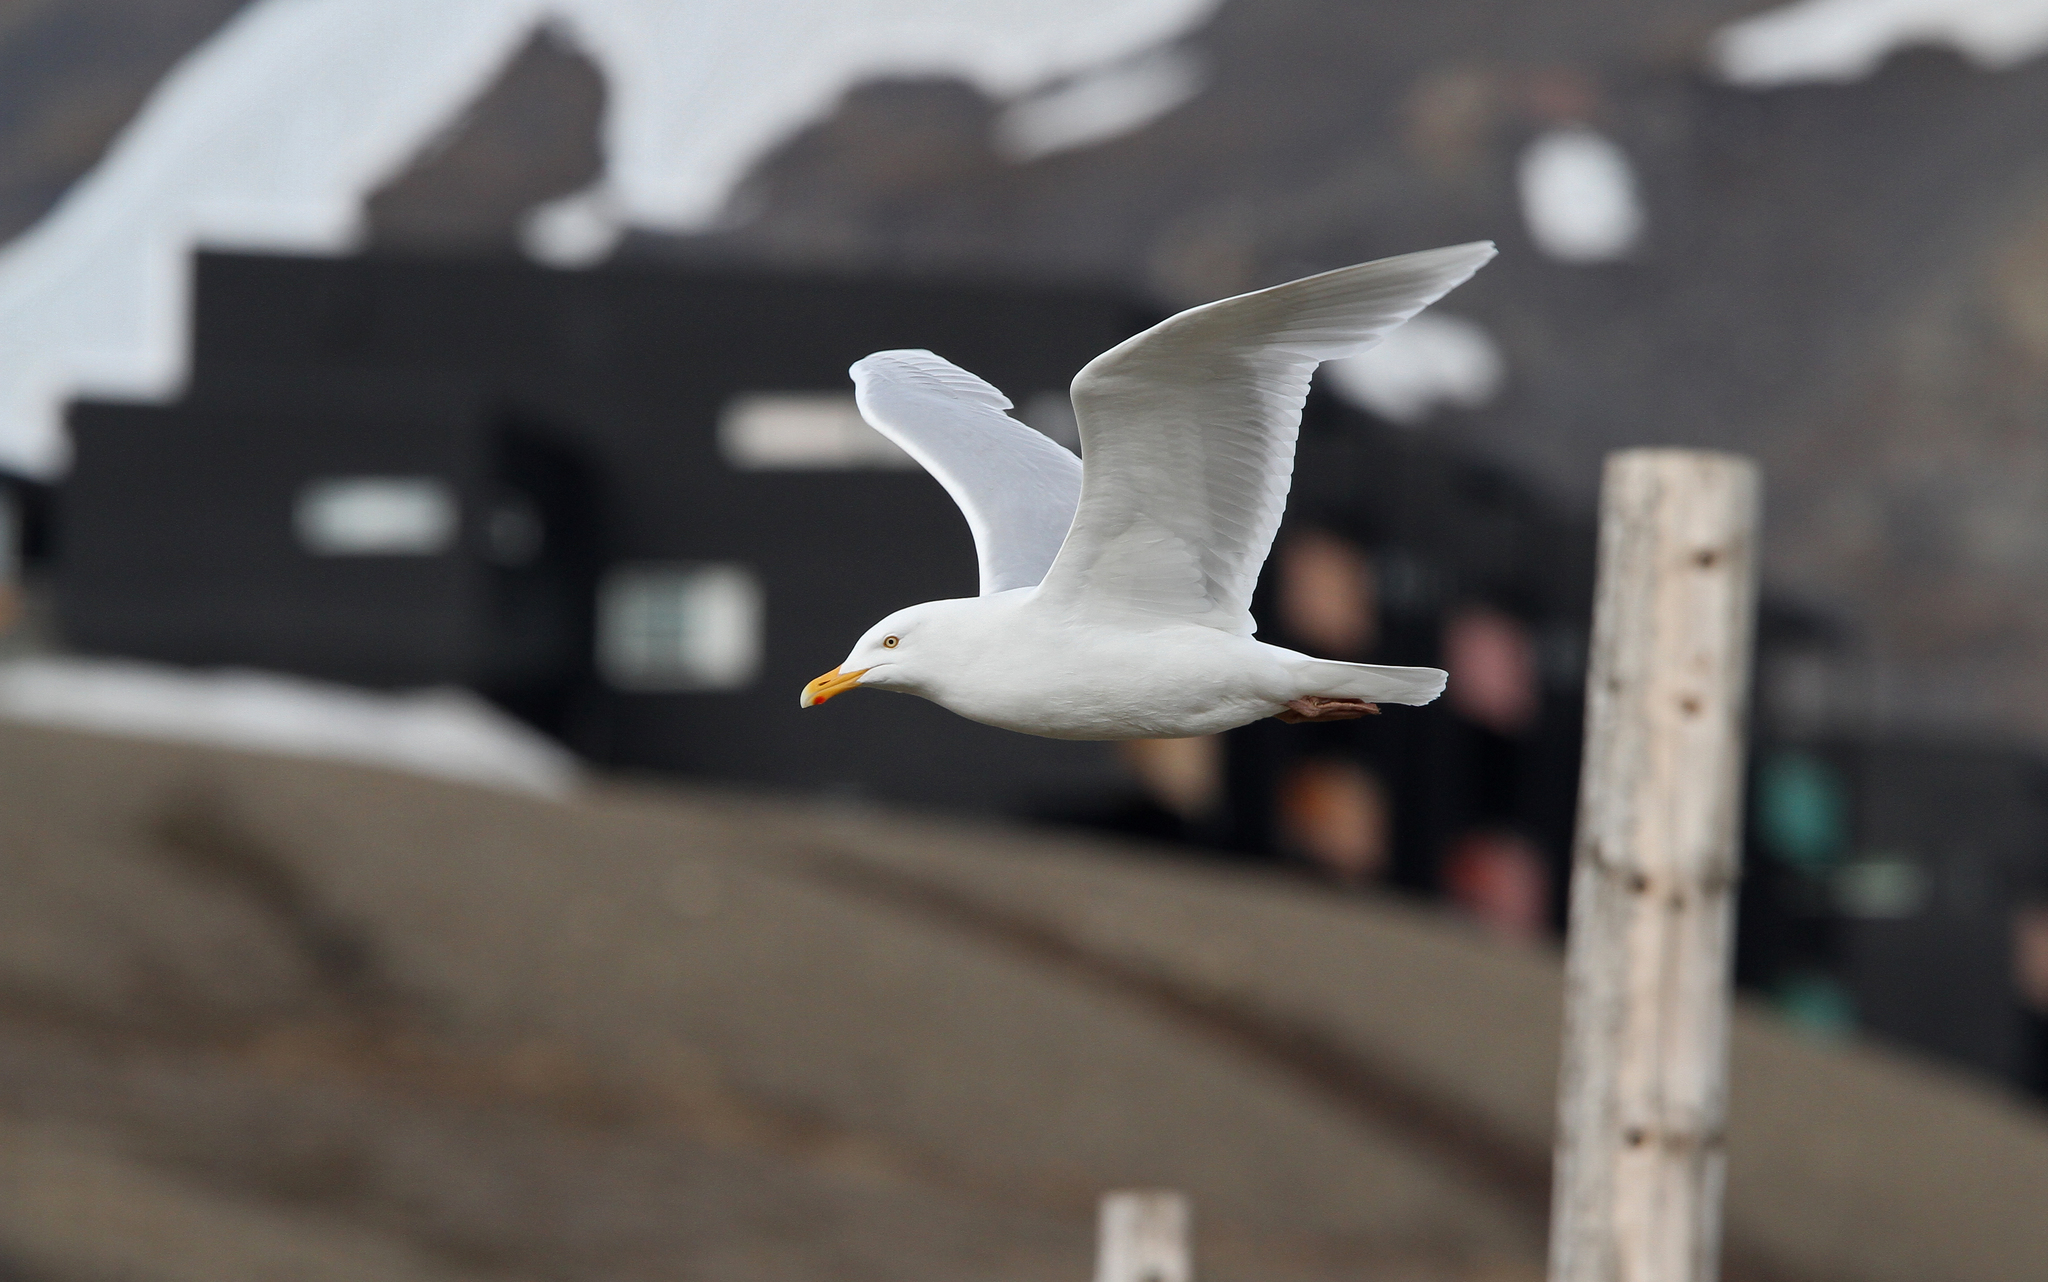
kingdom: Animalia
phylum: Chordata
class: Aves
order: Charadriiformes
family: Laridae
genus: Larus
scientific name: Larus hyperboreus
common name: Glaucous gull
